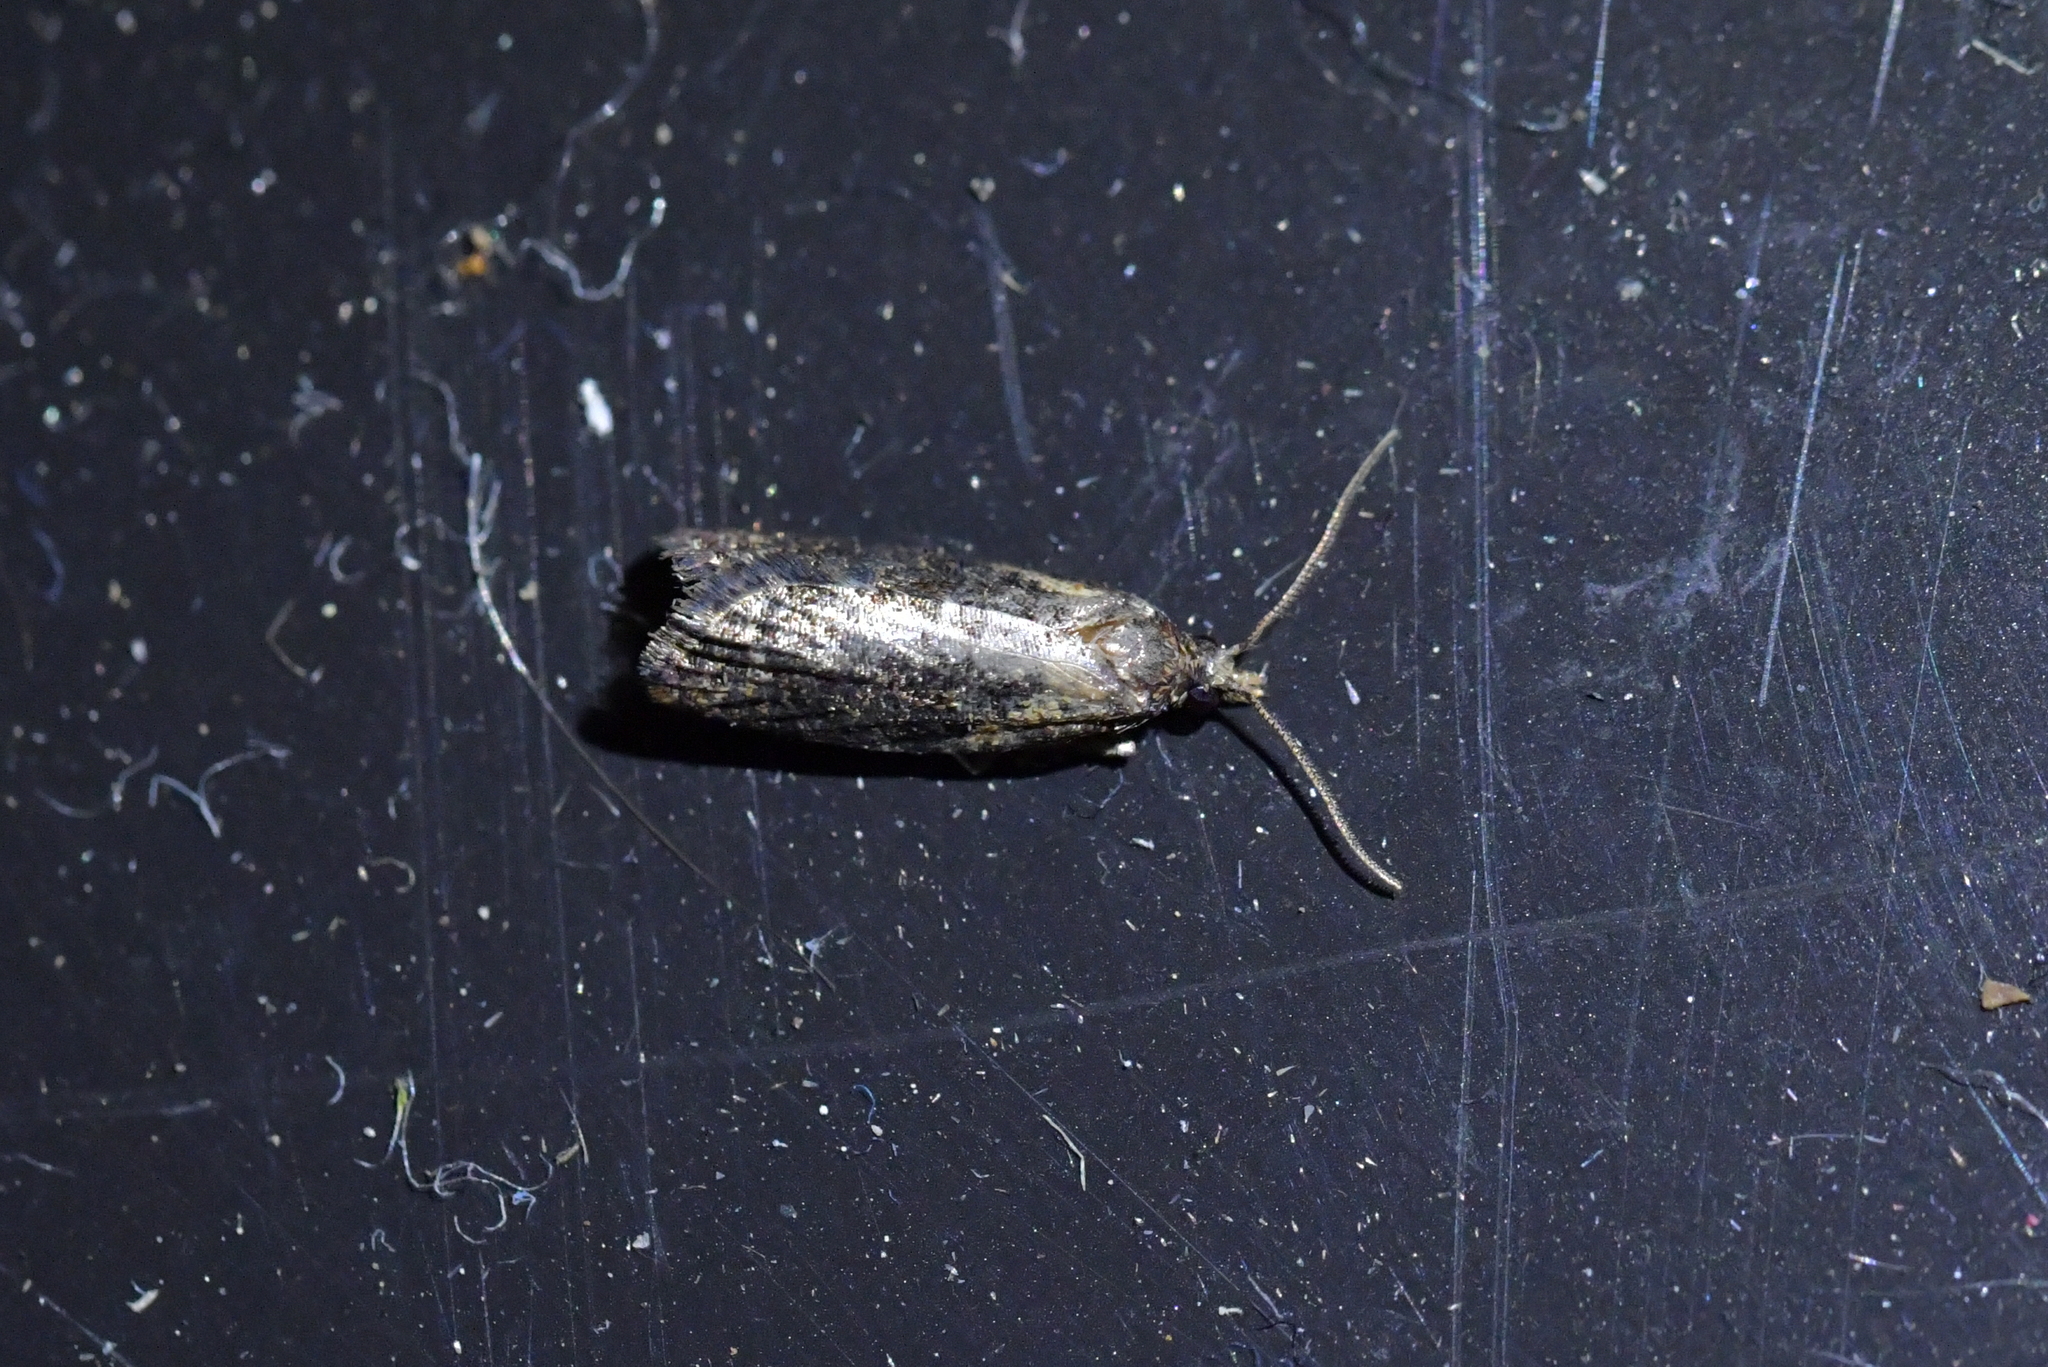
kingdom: Animalia
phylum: Arthropoda
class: Insecta
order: Lepidoptera
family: Tortricidae
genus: Capua
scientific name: Capua intractana
